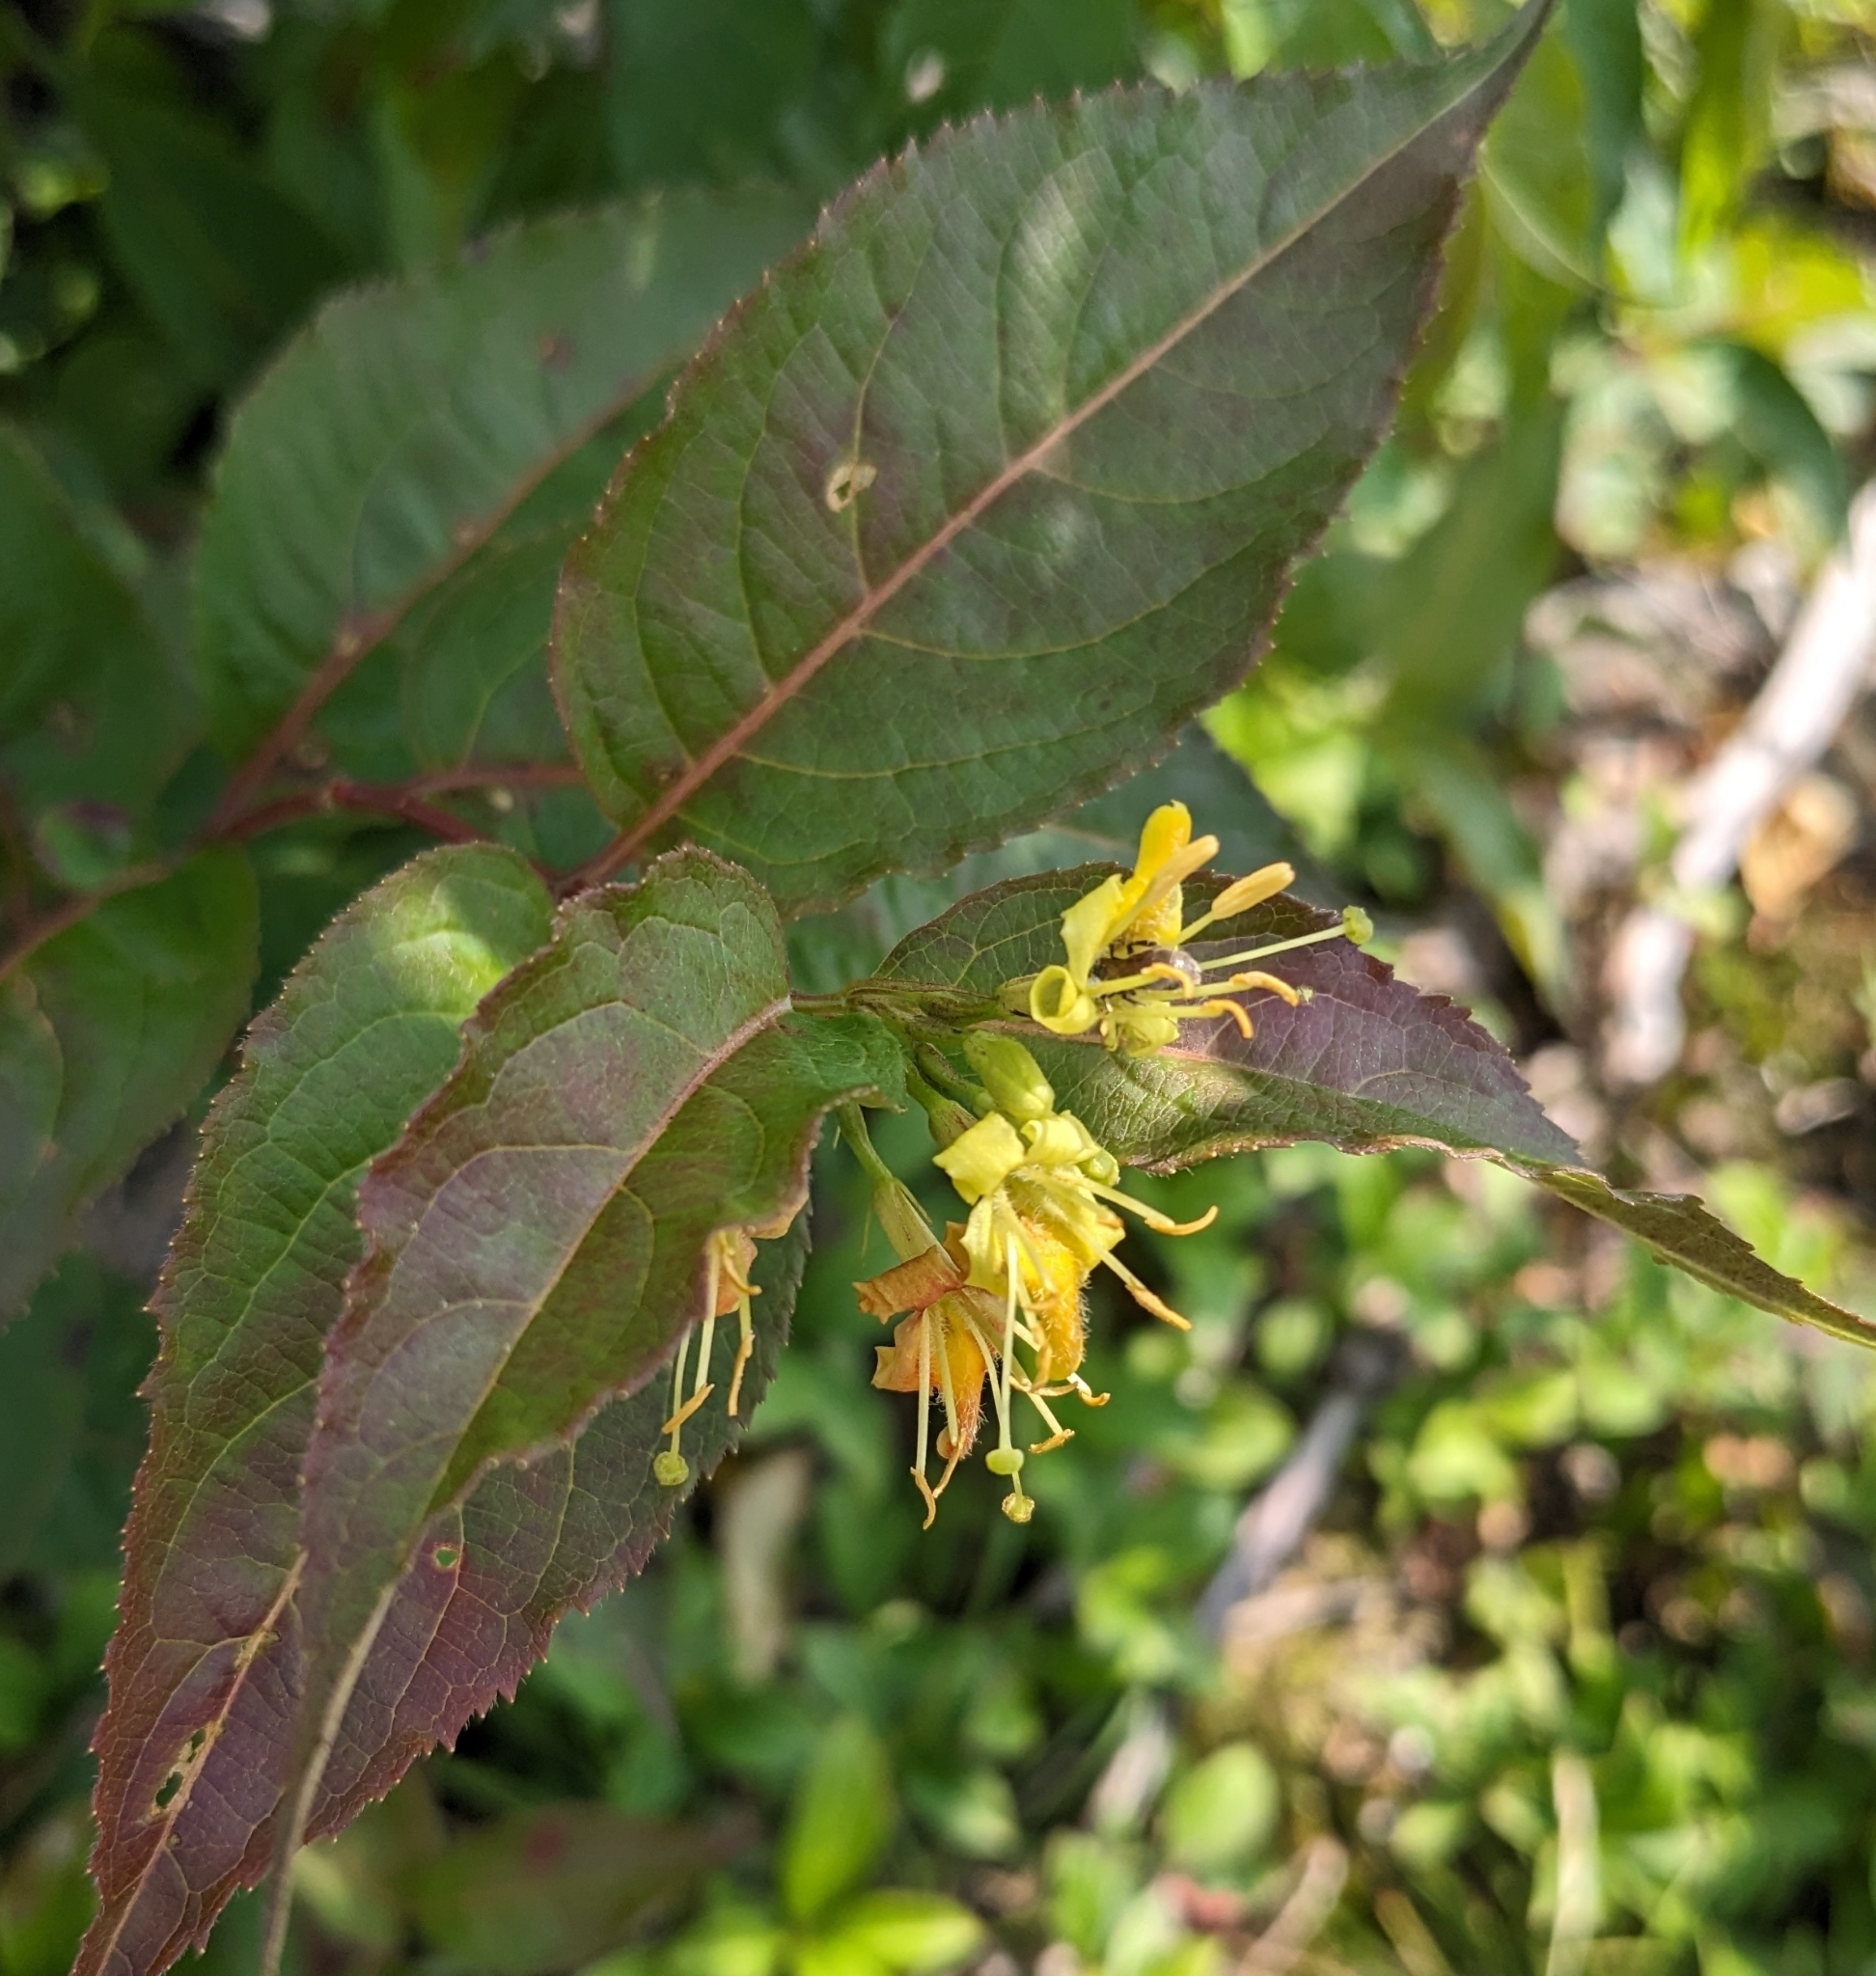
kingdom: Plantae
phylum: Tracheophyta
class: Magnoliopsida
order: Dipsacales
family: Caprifoliaceae
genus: Diervilla
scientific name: Diervilla lonicera
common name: Bush-honeysuckle
